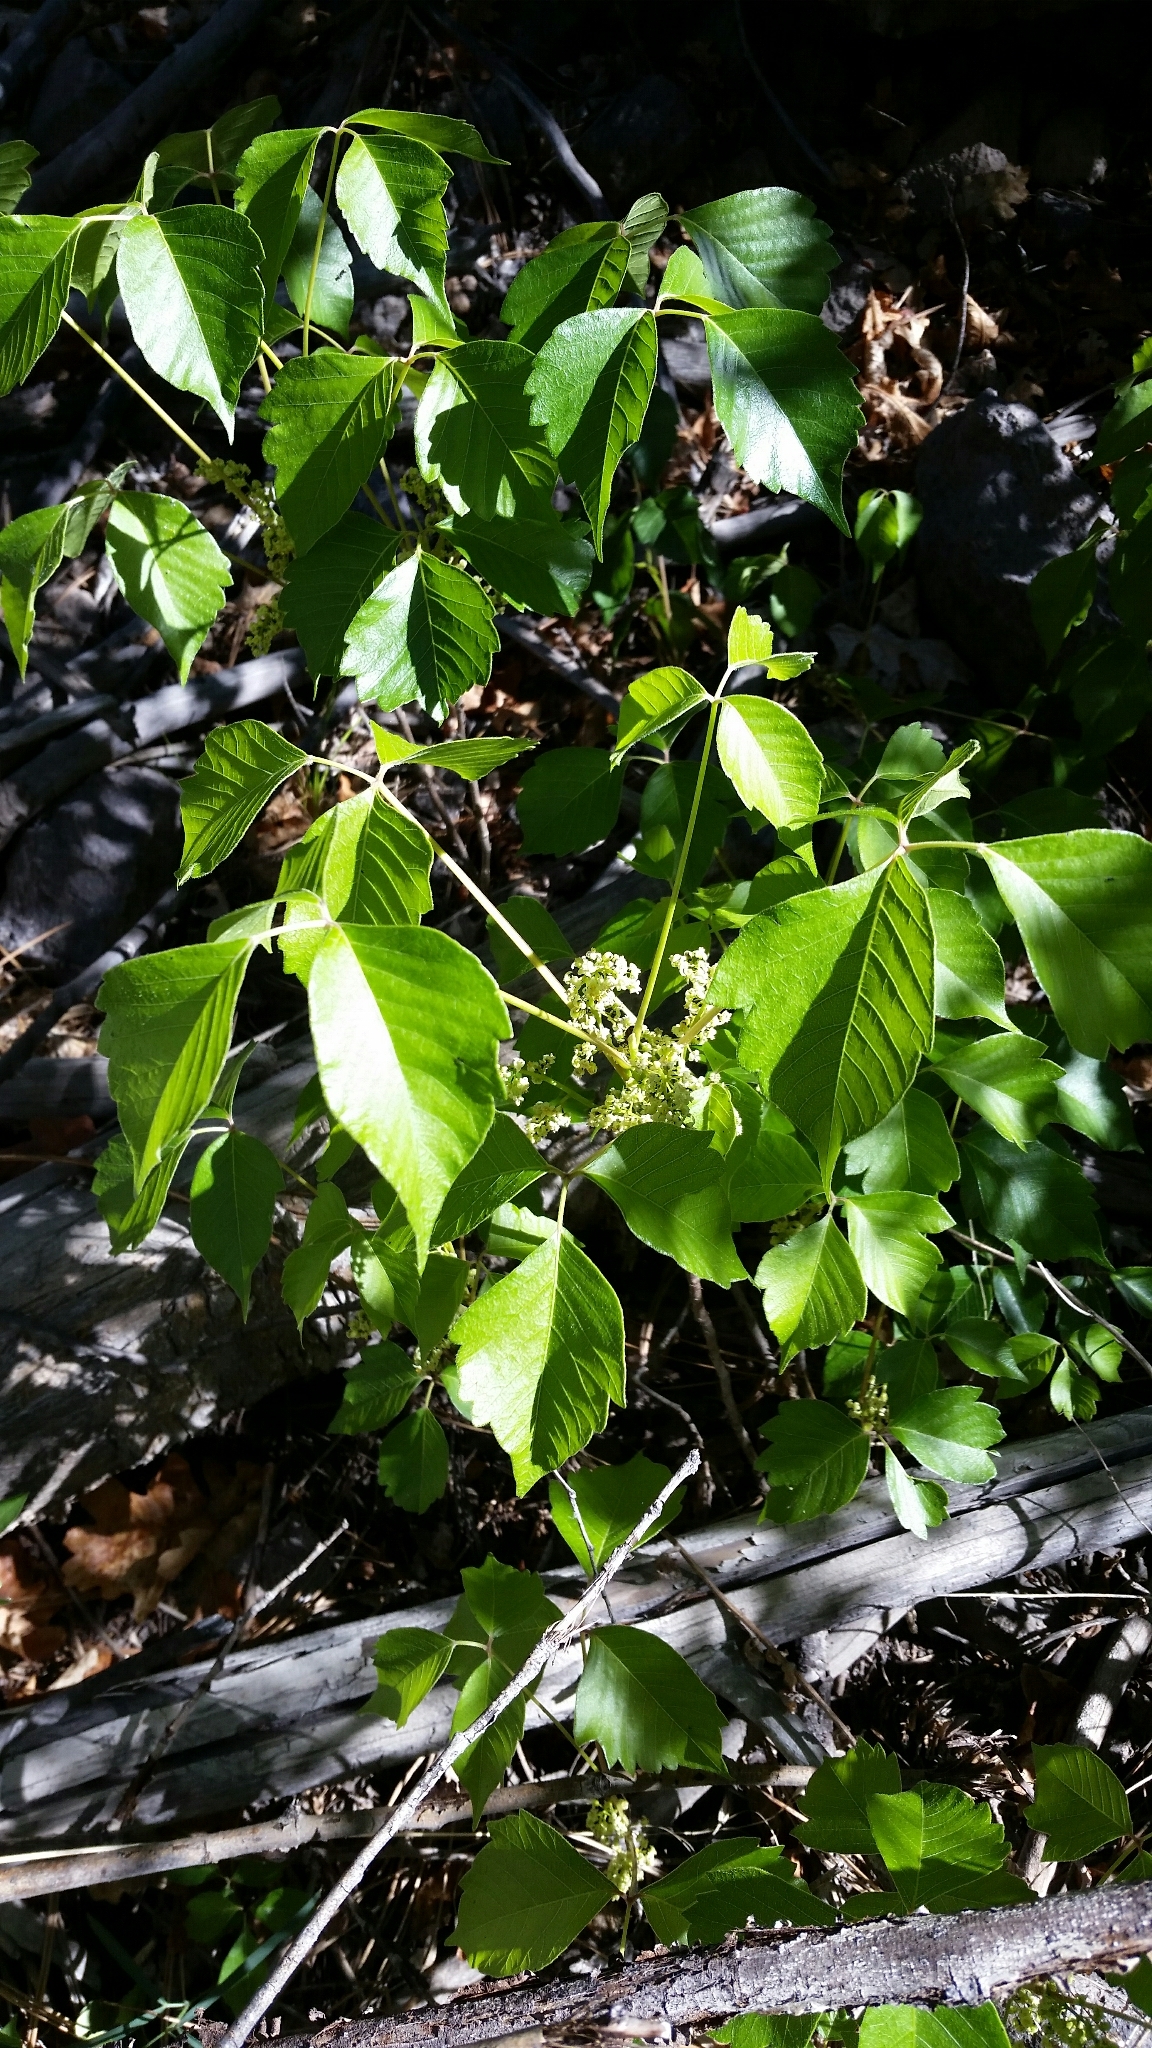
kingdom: Plantae
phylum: Tracheophyta
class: Magnoliopsida
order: Sapindales
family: Anacardiaceae
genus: Toxicodendron
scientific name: Toxicodendron rydbergii
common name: Rydberg's poison-ivy
